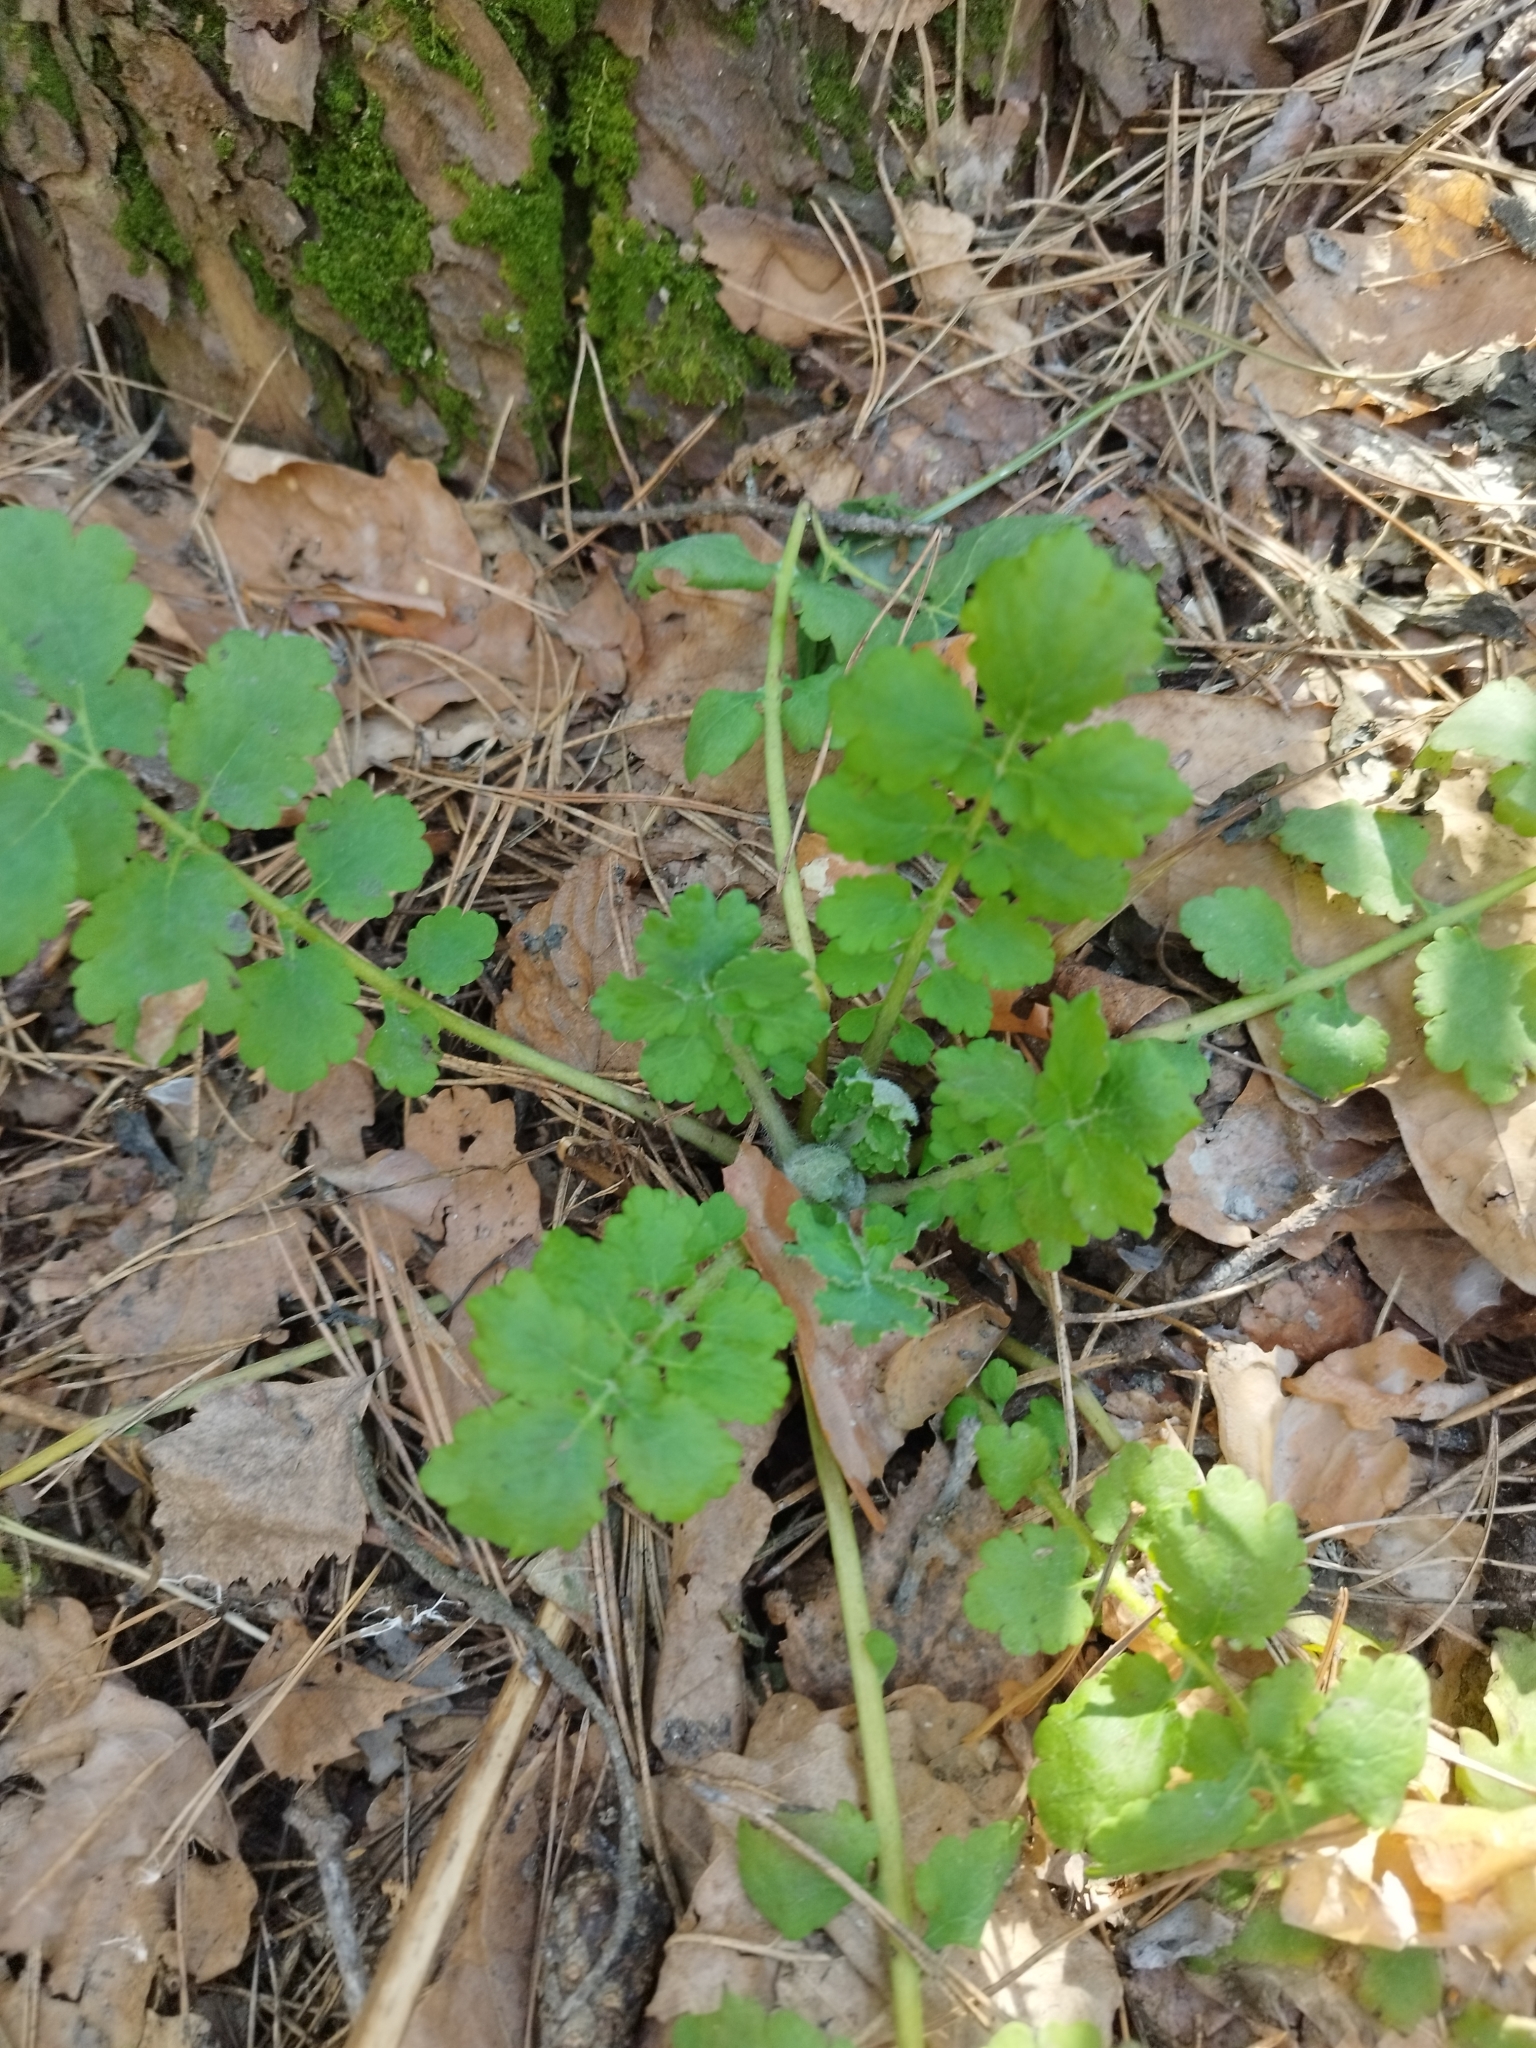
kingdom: Plantae
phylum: Tracheophyta
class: Magnoliopsida
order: Ranunculales
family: Papaveraceae
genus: Chelidonium
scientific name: Chelidonium majus
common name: Greater celandine
